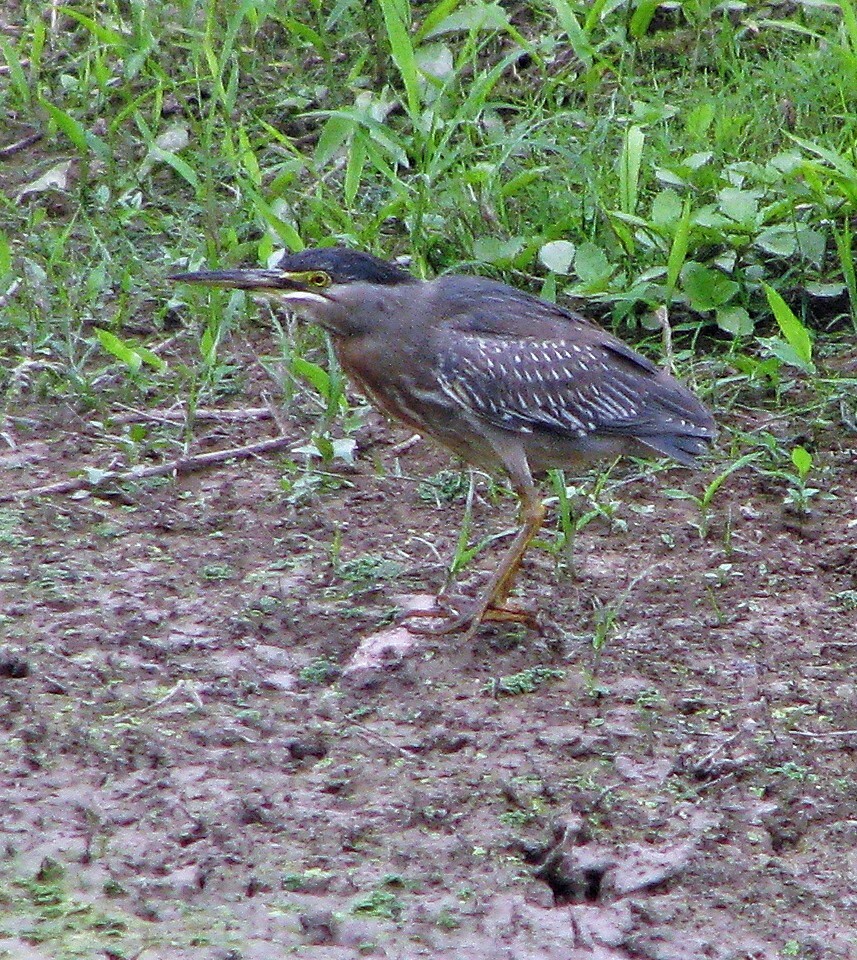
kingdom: Animalia
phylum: Chordata
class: Aves
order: Pelecaniformes
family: Ardeidae
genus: Butorides
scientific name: Butorides striata
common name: Striated heron
